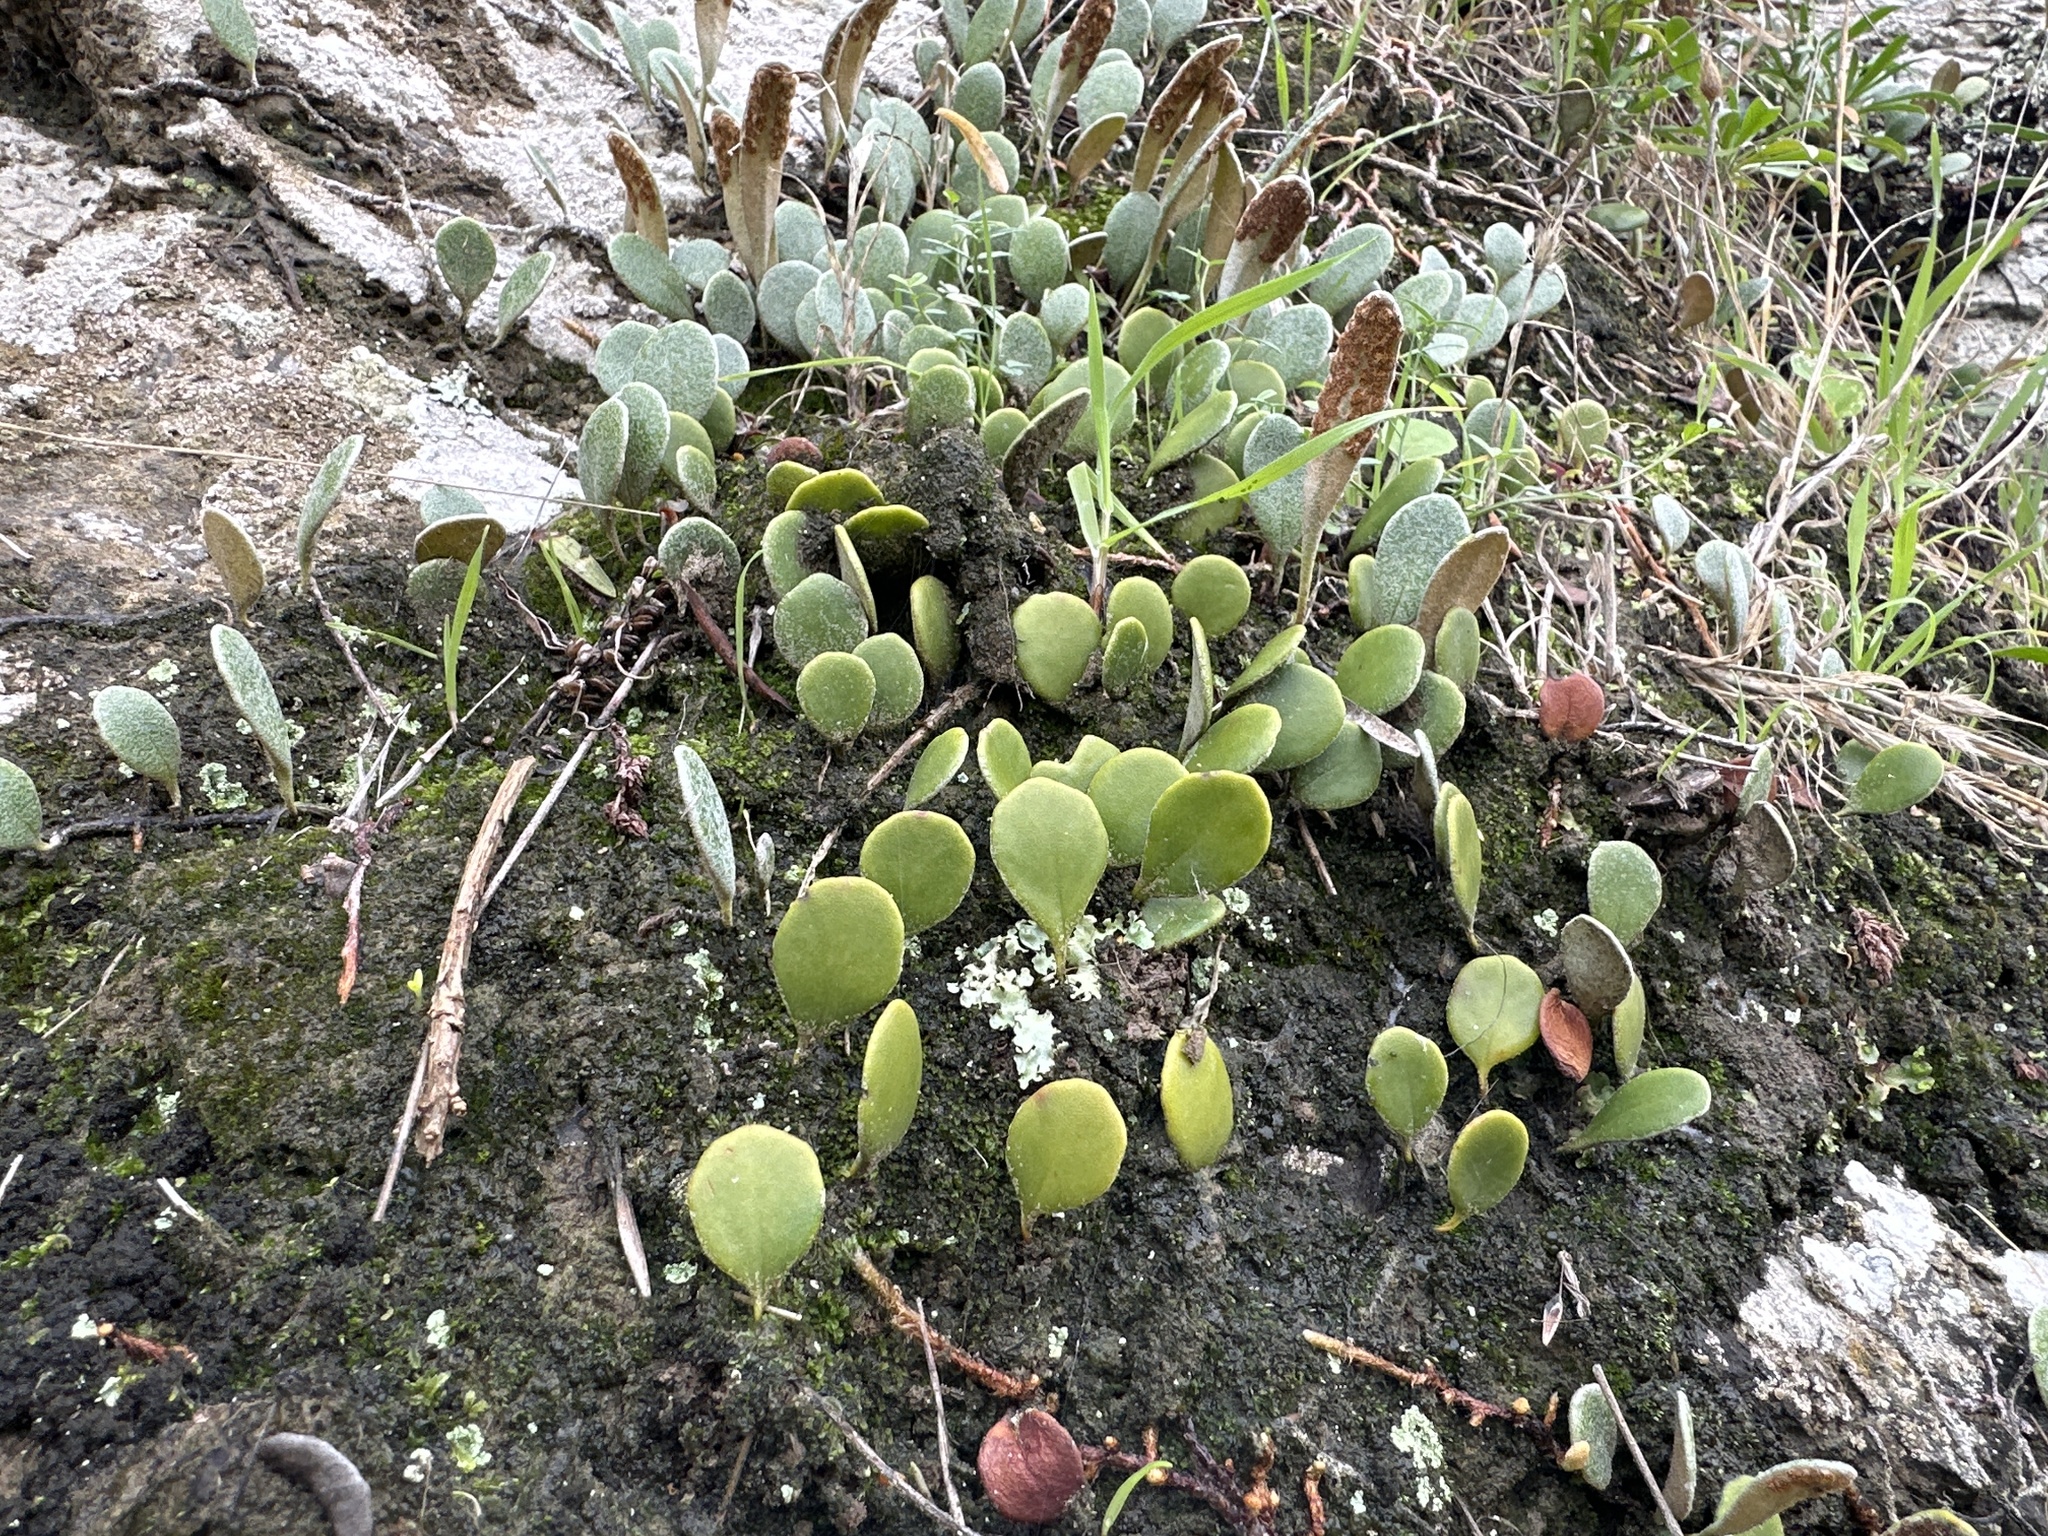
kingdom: Plantae
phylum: Tracheophyta
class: Polypodiopsida
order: Polypodiales
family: Polypodiaceae
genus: Pyrrosia
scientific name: Pyrrosia eleagnifolia
